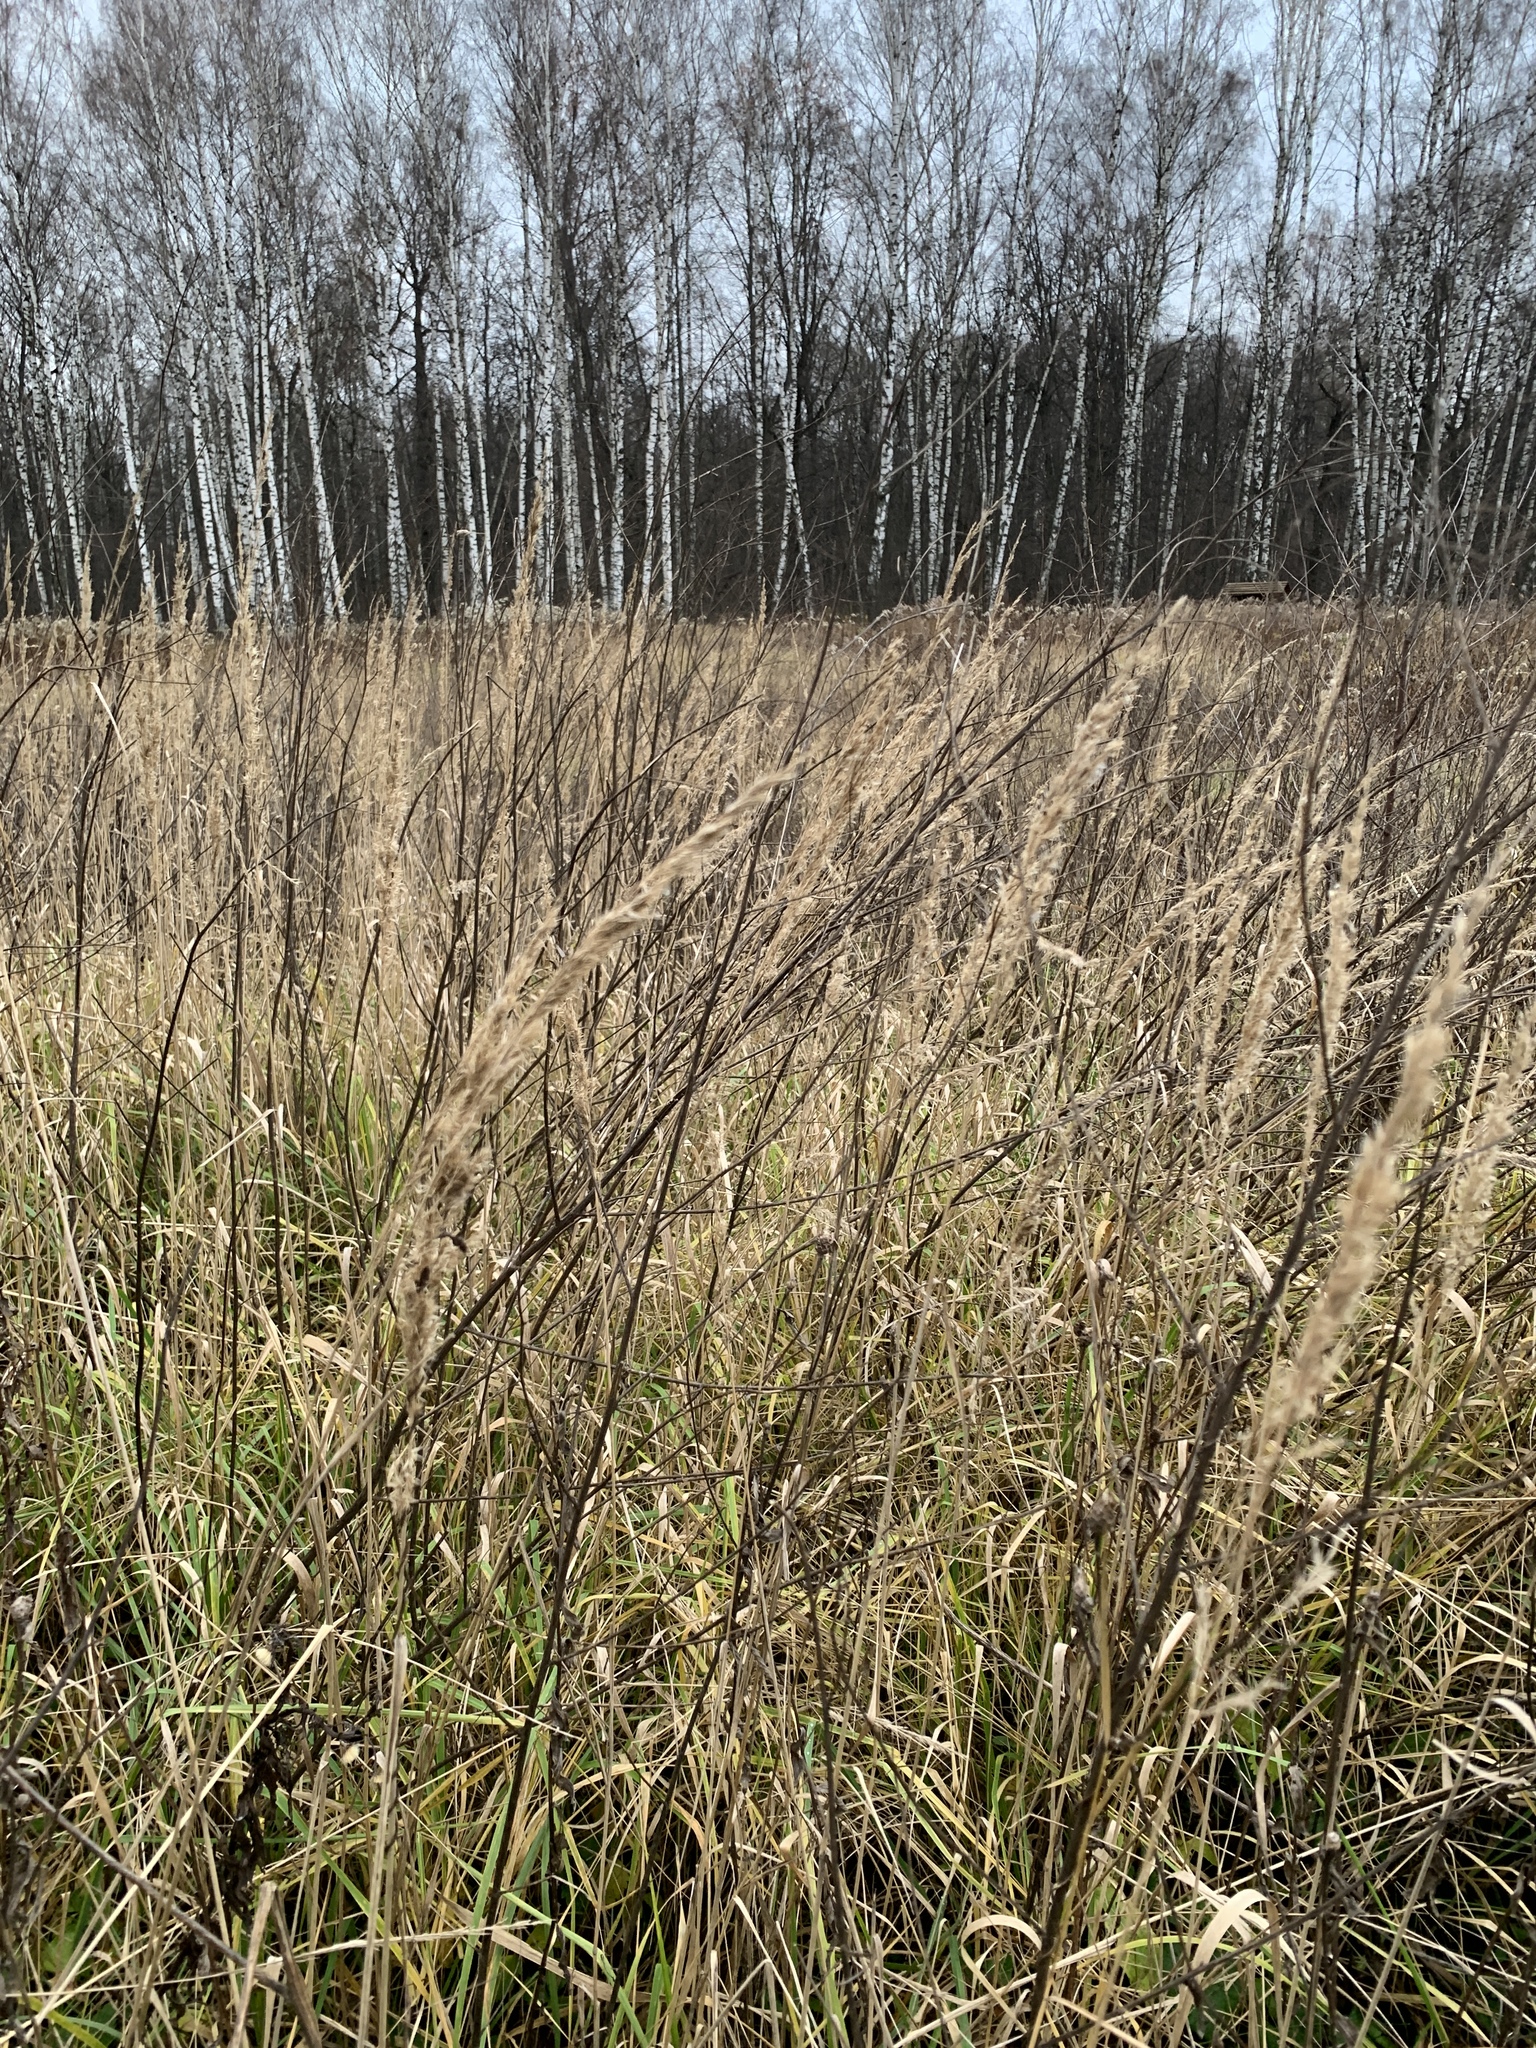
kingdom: Plantae
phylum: Tracheophyta
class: Liliopsida
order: Poales
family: Poaceae
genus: Calamagrostis
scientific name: Calamagrostis epigejos
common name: Wood small-reed
